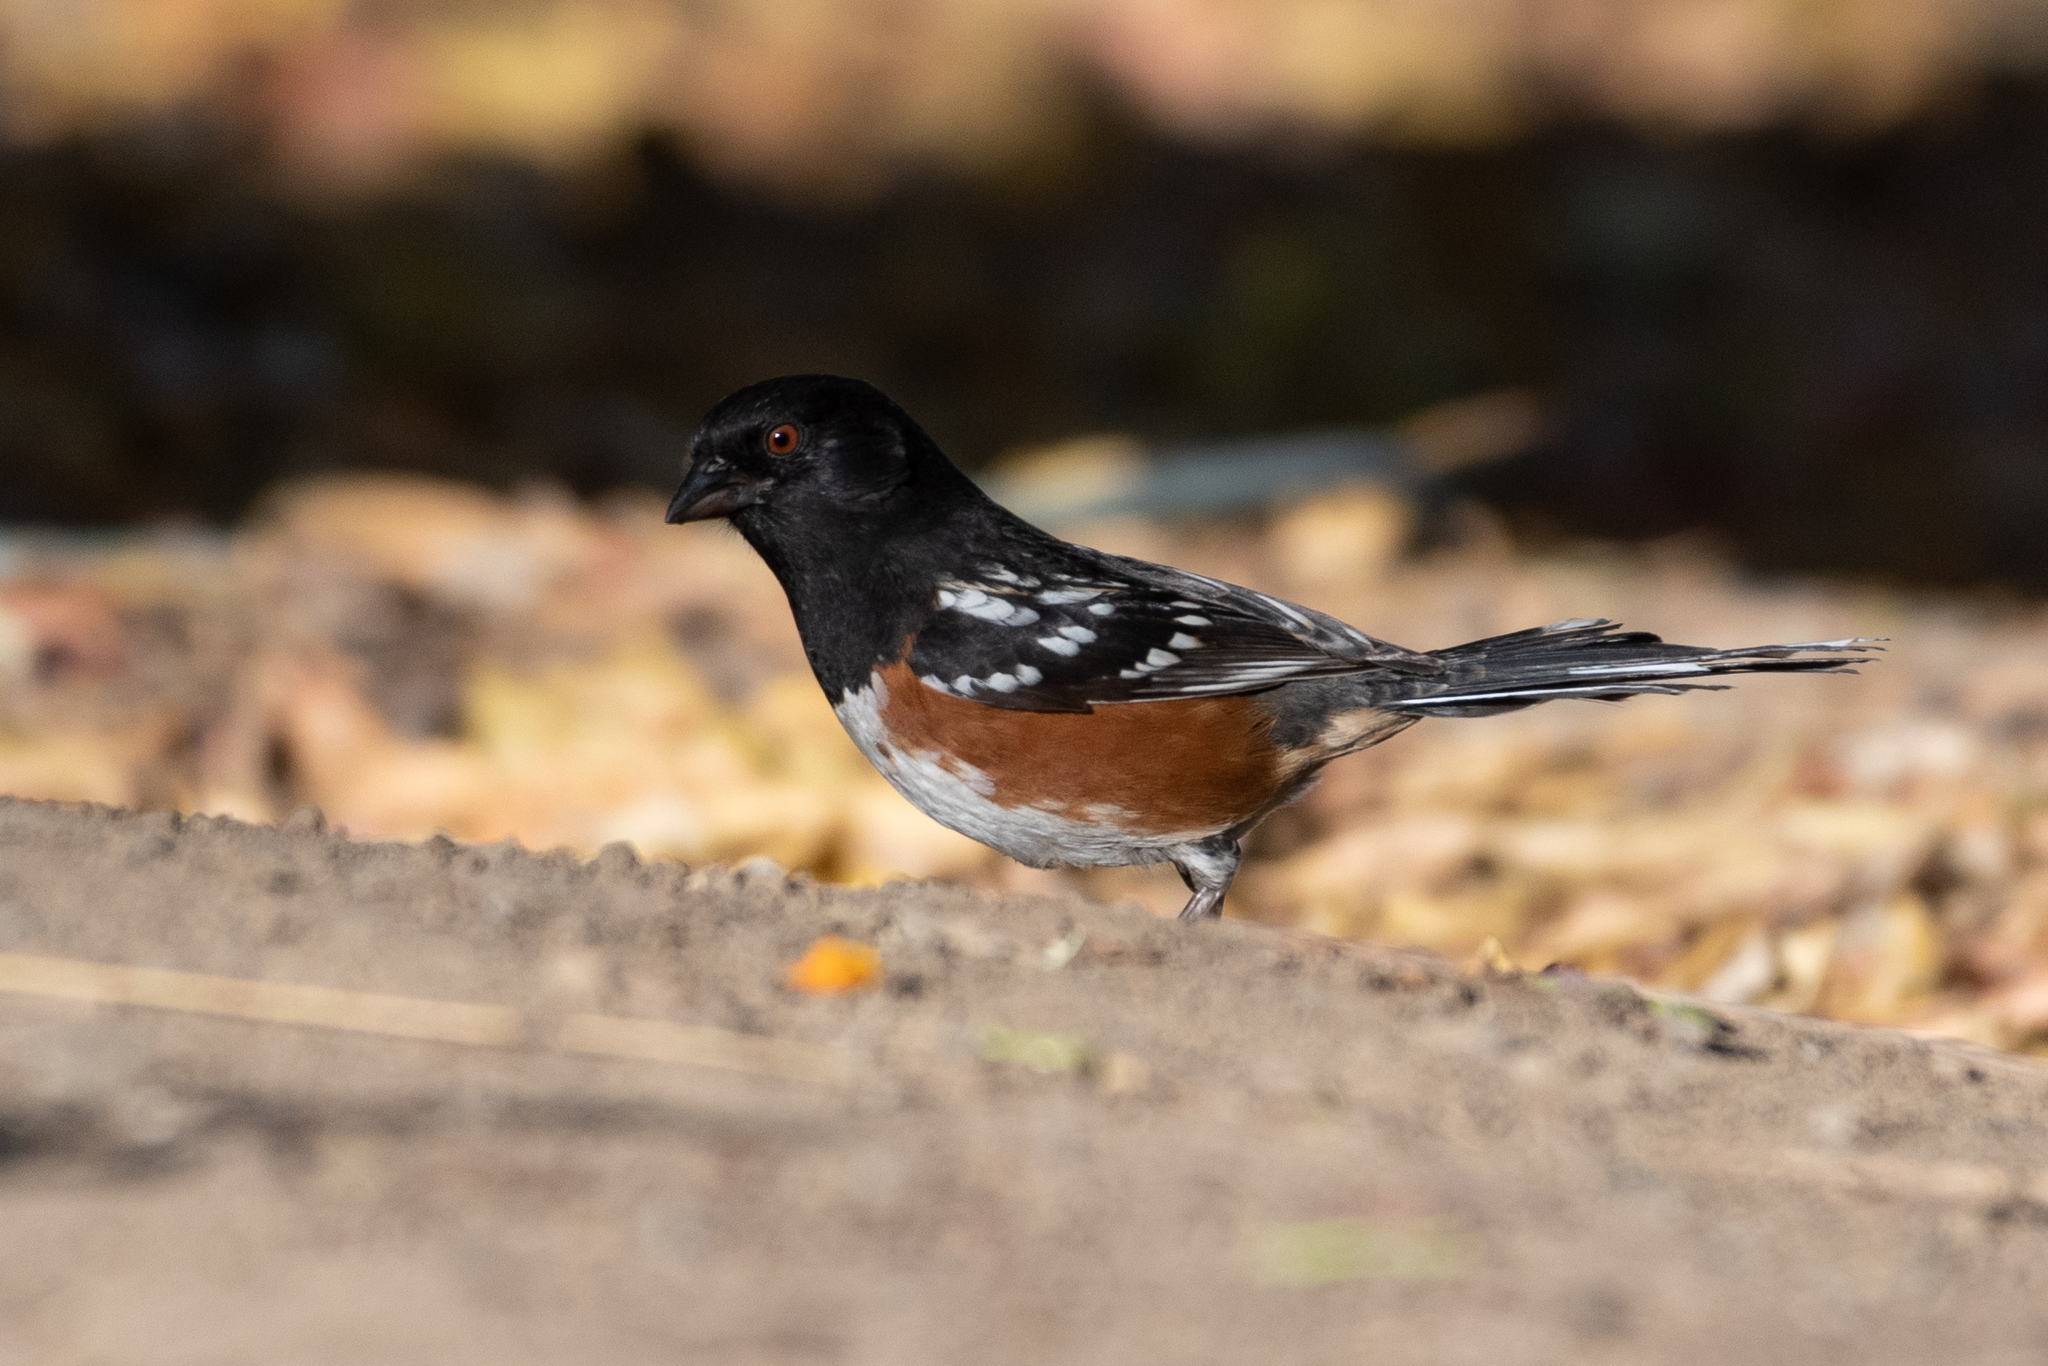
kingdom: Animalia
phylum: Chordata
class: Aves
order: Passeriformes
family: Passerellidae
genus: Pipilo
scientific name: Pipilo maculatus
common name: Spotted towhee
